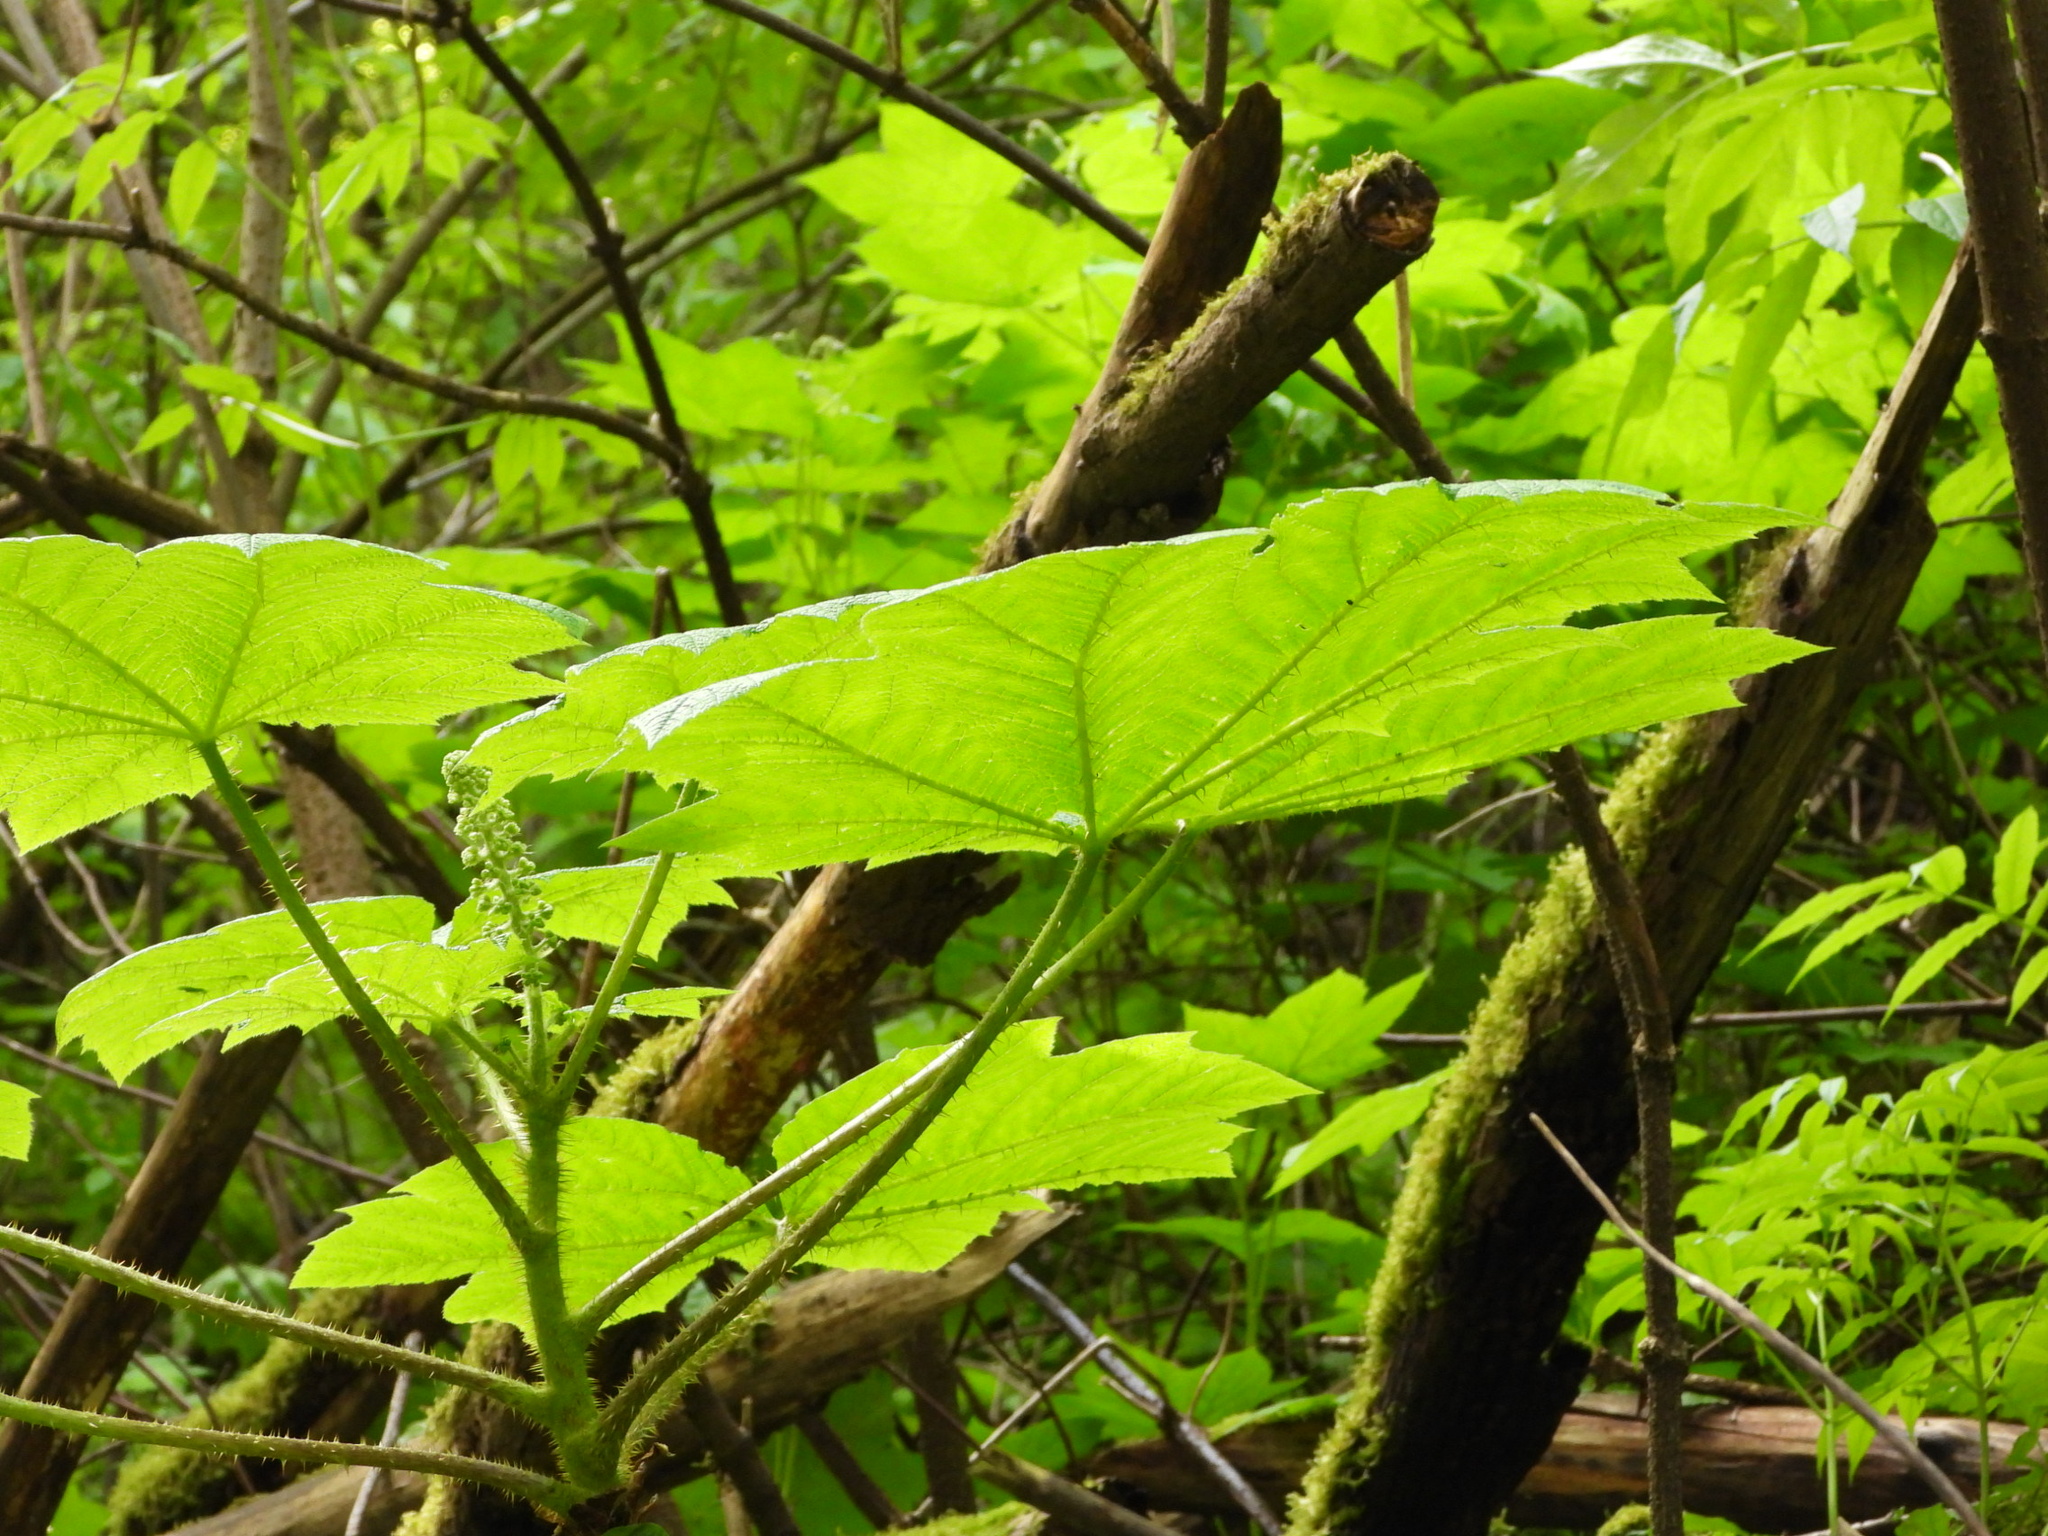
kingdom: Plantae
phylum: Tracheophyta
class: Magnoliopsida
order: Apiales
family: Araliaceae
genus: Oplopanax
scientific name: Oplopanax horridus
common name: Devil's walking-stick
